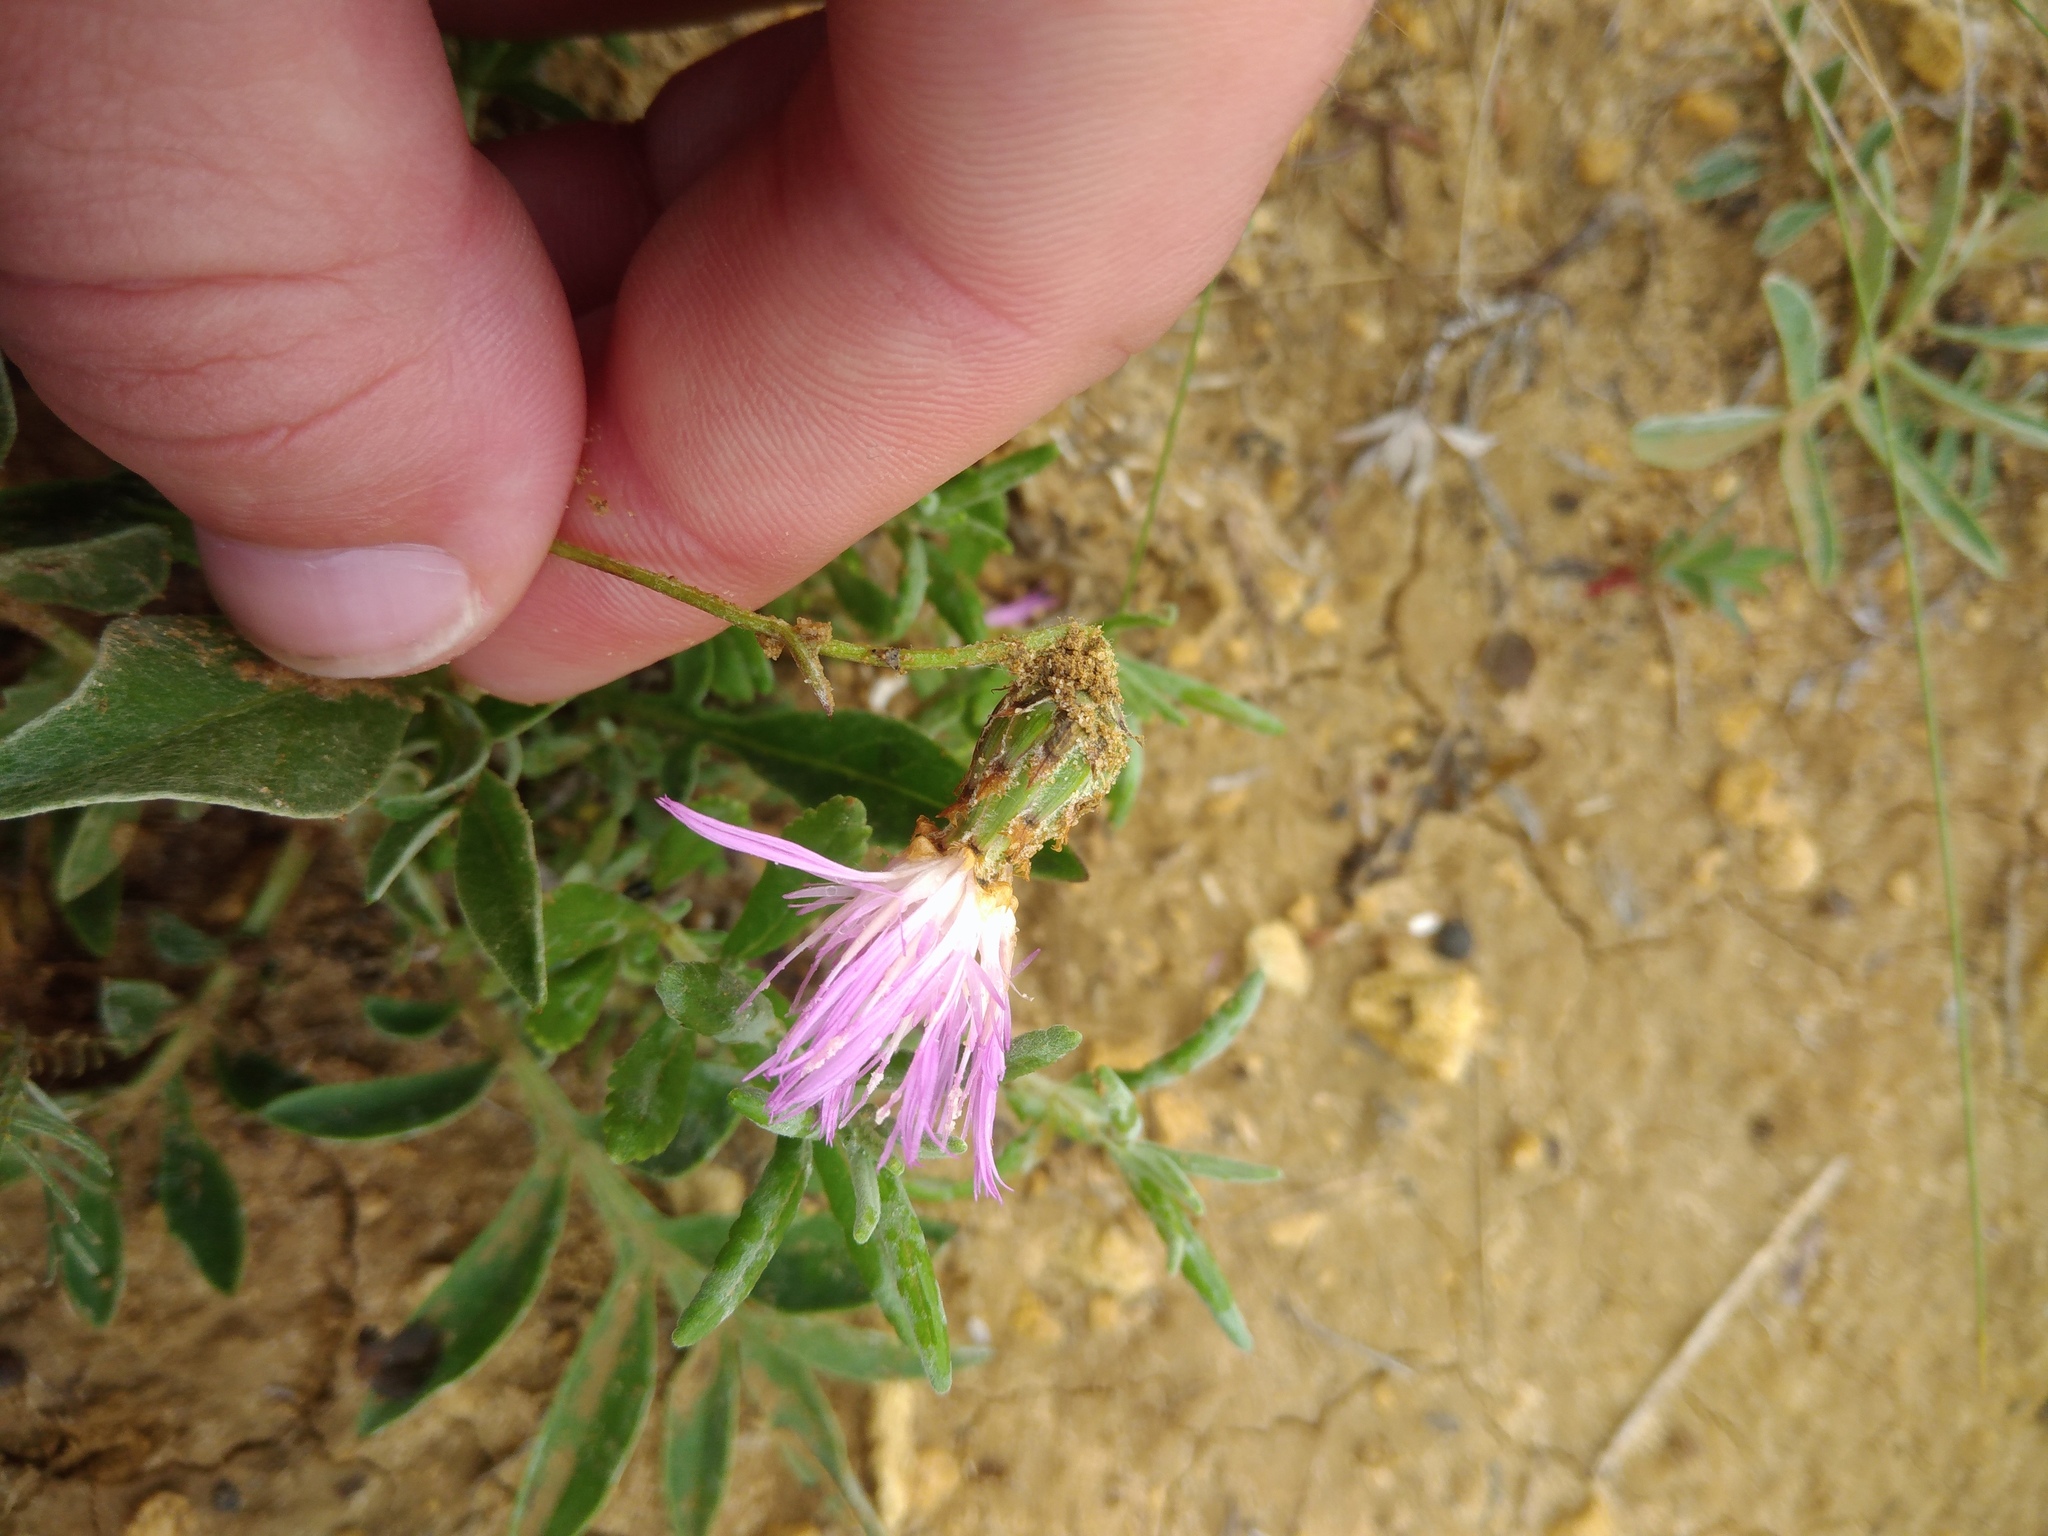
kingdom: Plantae
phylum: Tracheophyta
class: Magnoliopsida
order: Asterales
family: Asteraceae
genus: Psephellus
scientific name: Psephellus marschallianus
